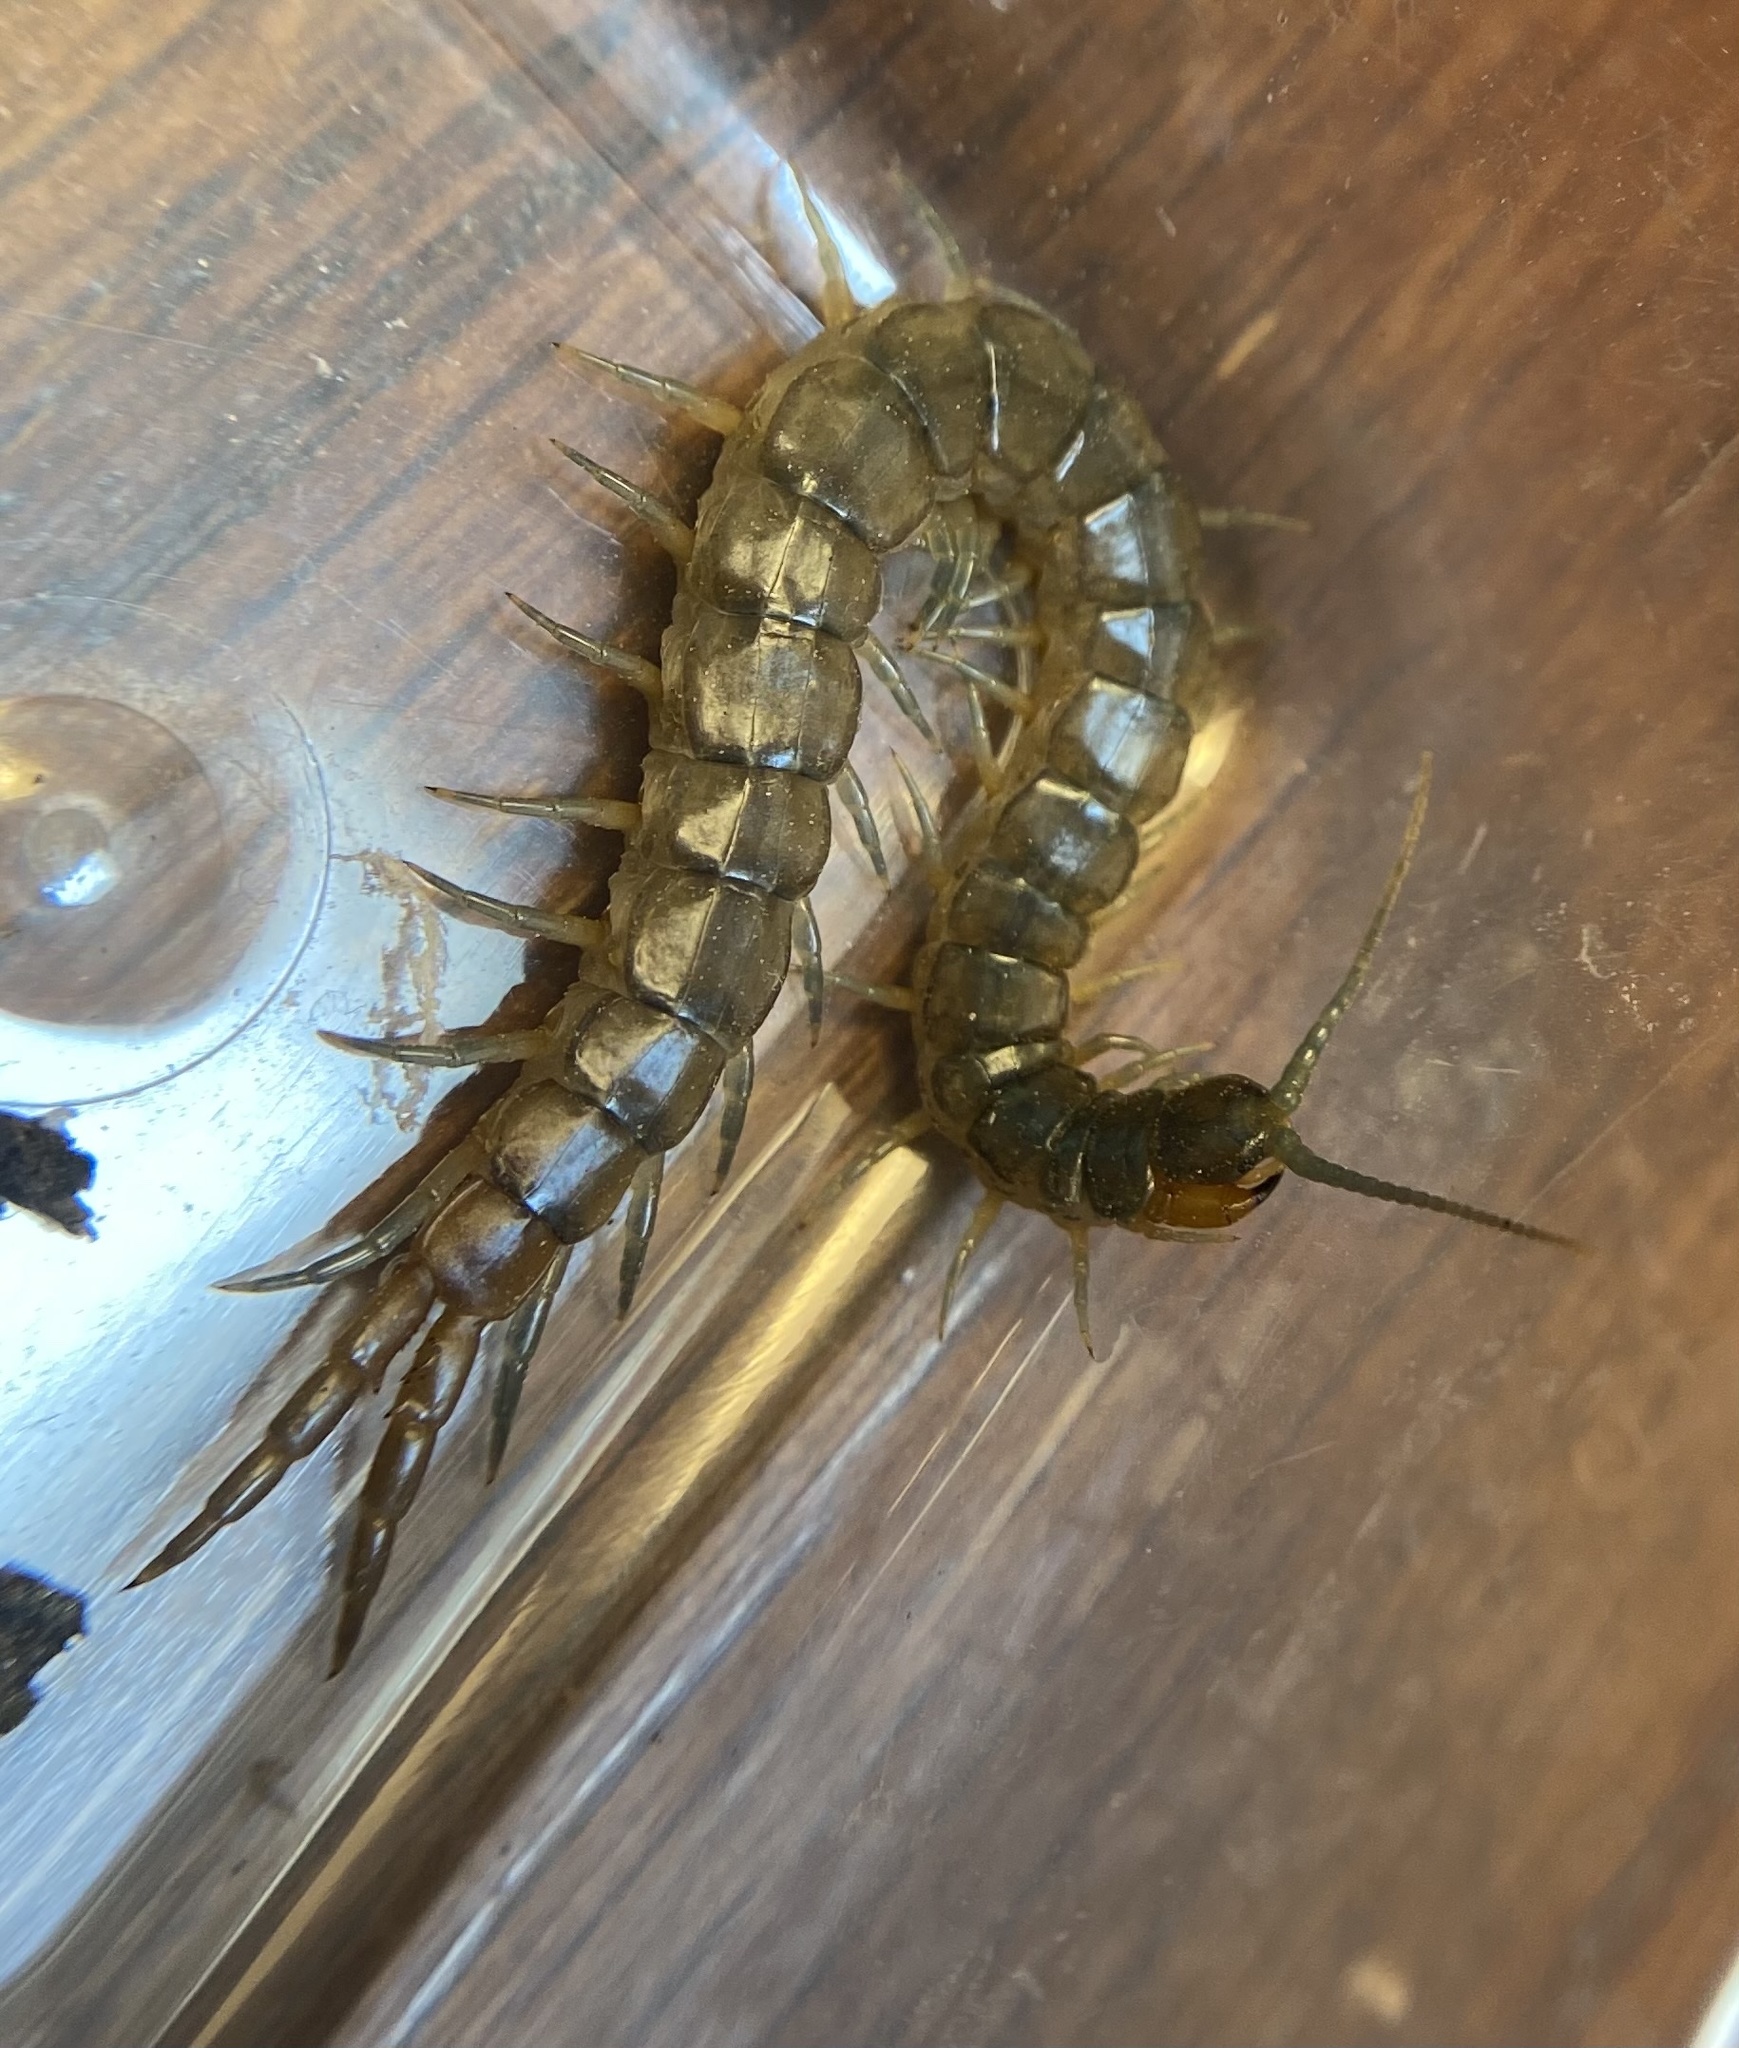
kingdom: Animalia
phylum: Arthropoda
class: Chilopoda
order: Scolopendromorpha
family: Scolopendridae
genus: Scolopendra
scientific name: Scolopendra viridis
